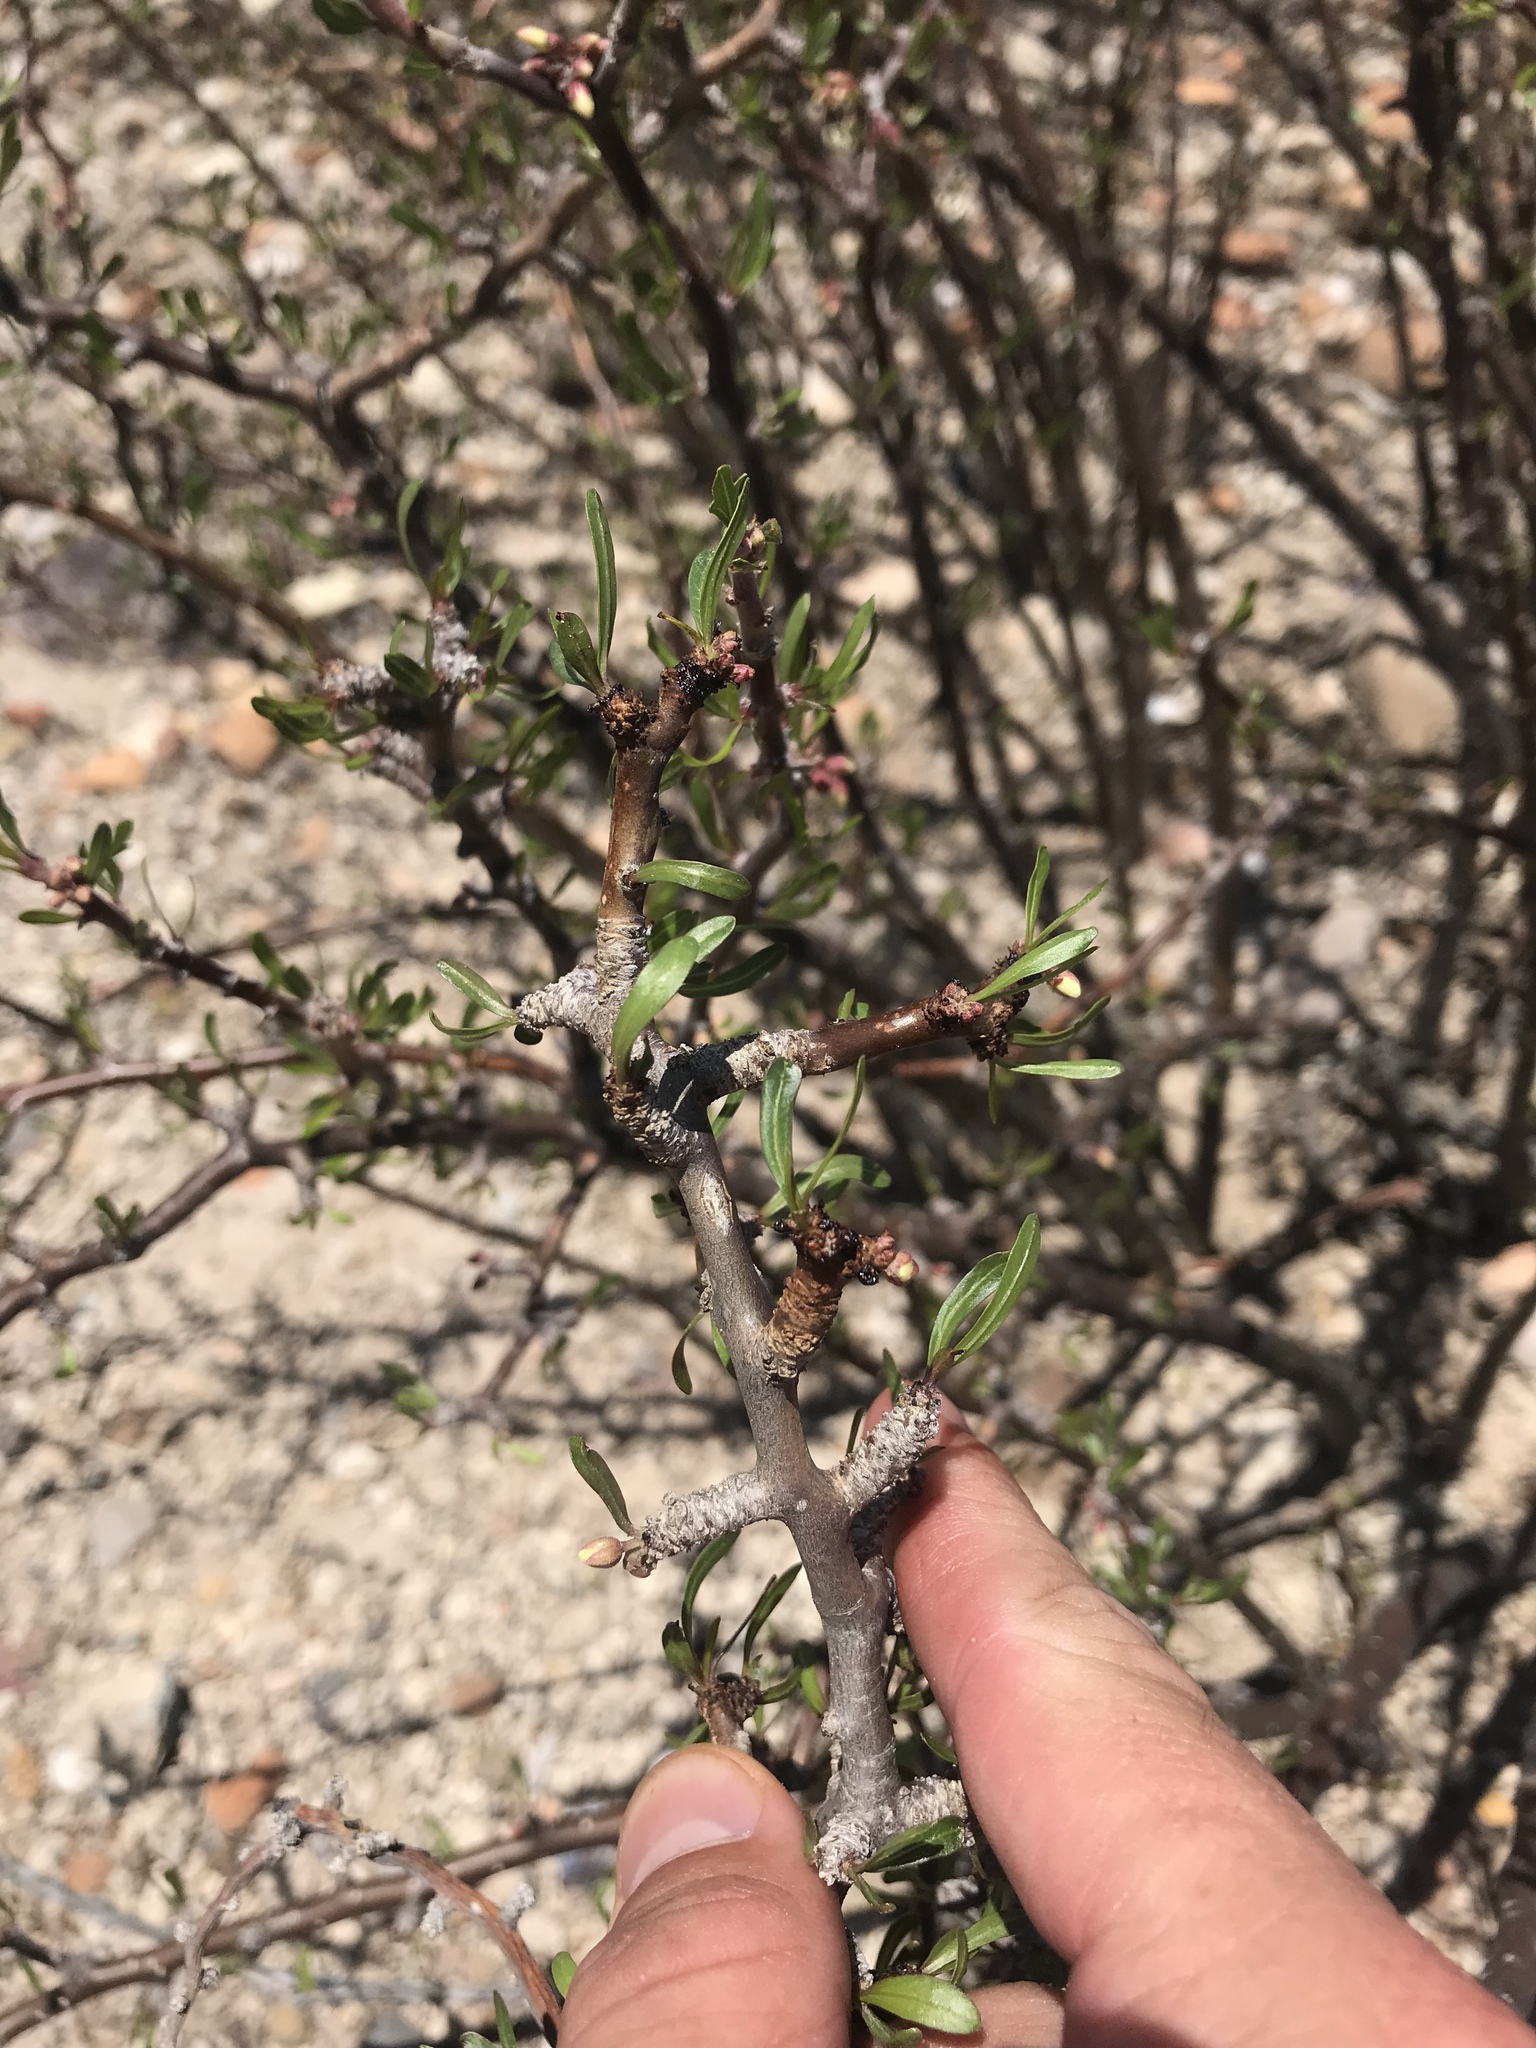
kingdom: Plantae
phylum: Tracheophyta
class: Magnoliopsida
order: Malpighiales
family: Euphorbiaceae
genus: Jatropha
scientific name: Jatropha dioica
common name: Leatherstem
